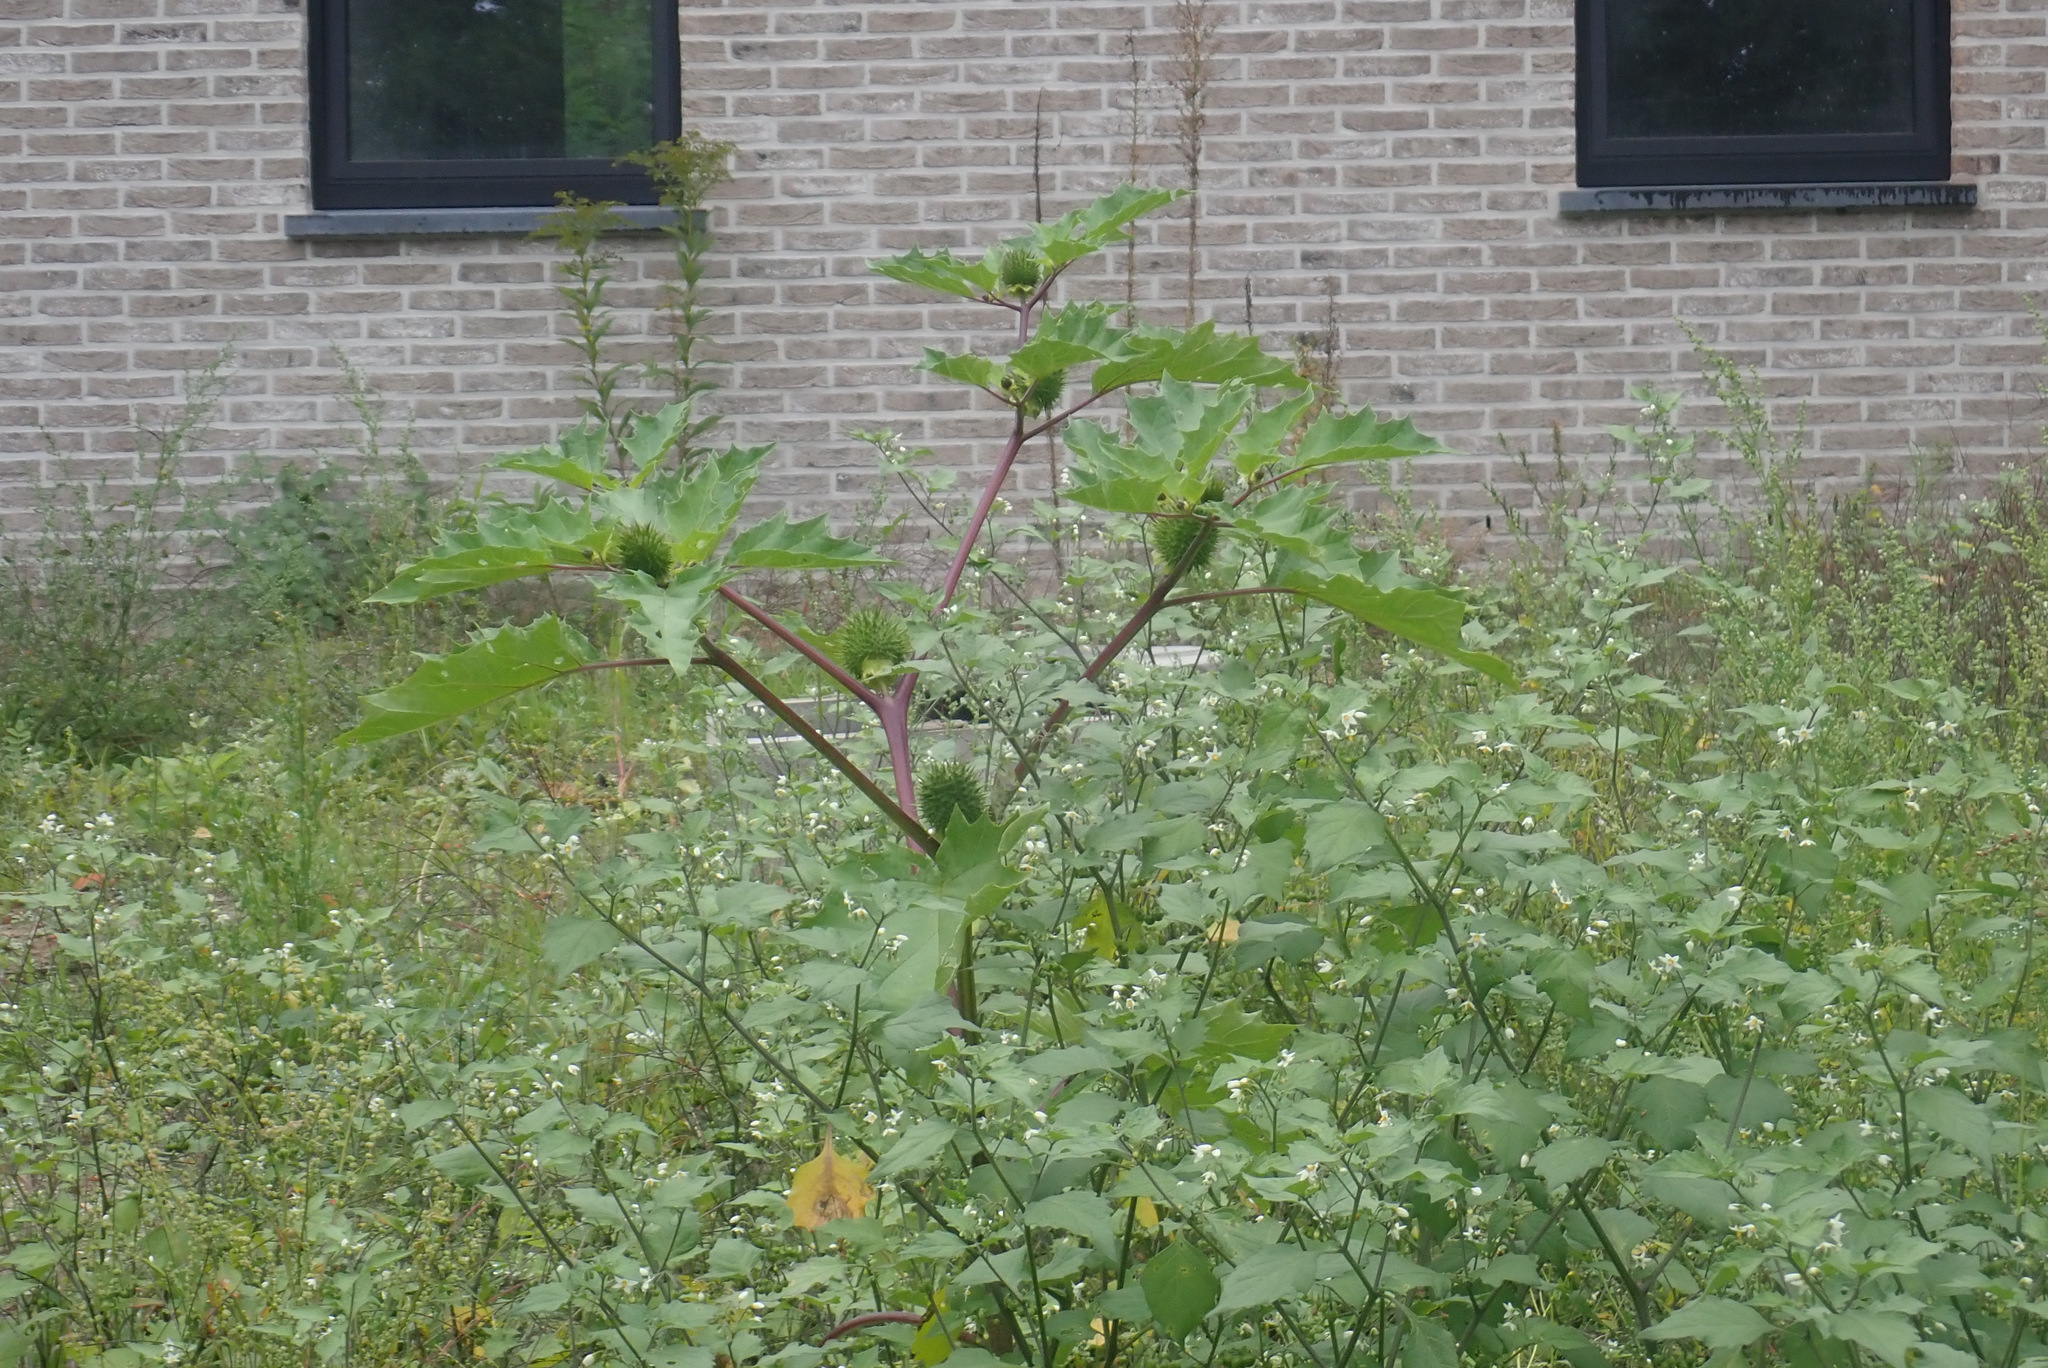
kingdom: Plantae
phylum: Tracheophyta
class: Magnoliopsida
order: Solanales
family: Solanaceae
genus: Datura
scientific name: Datura stramonium
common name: Thorn-apple
